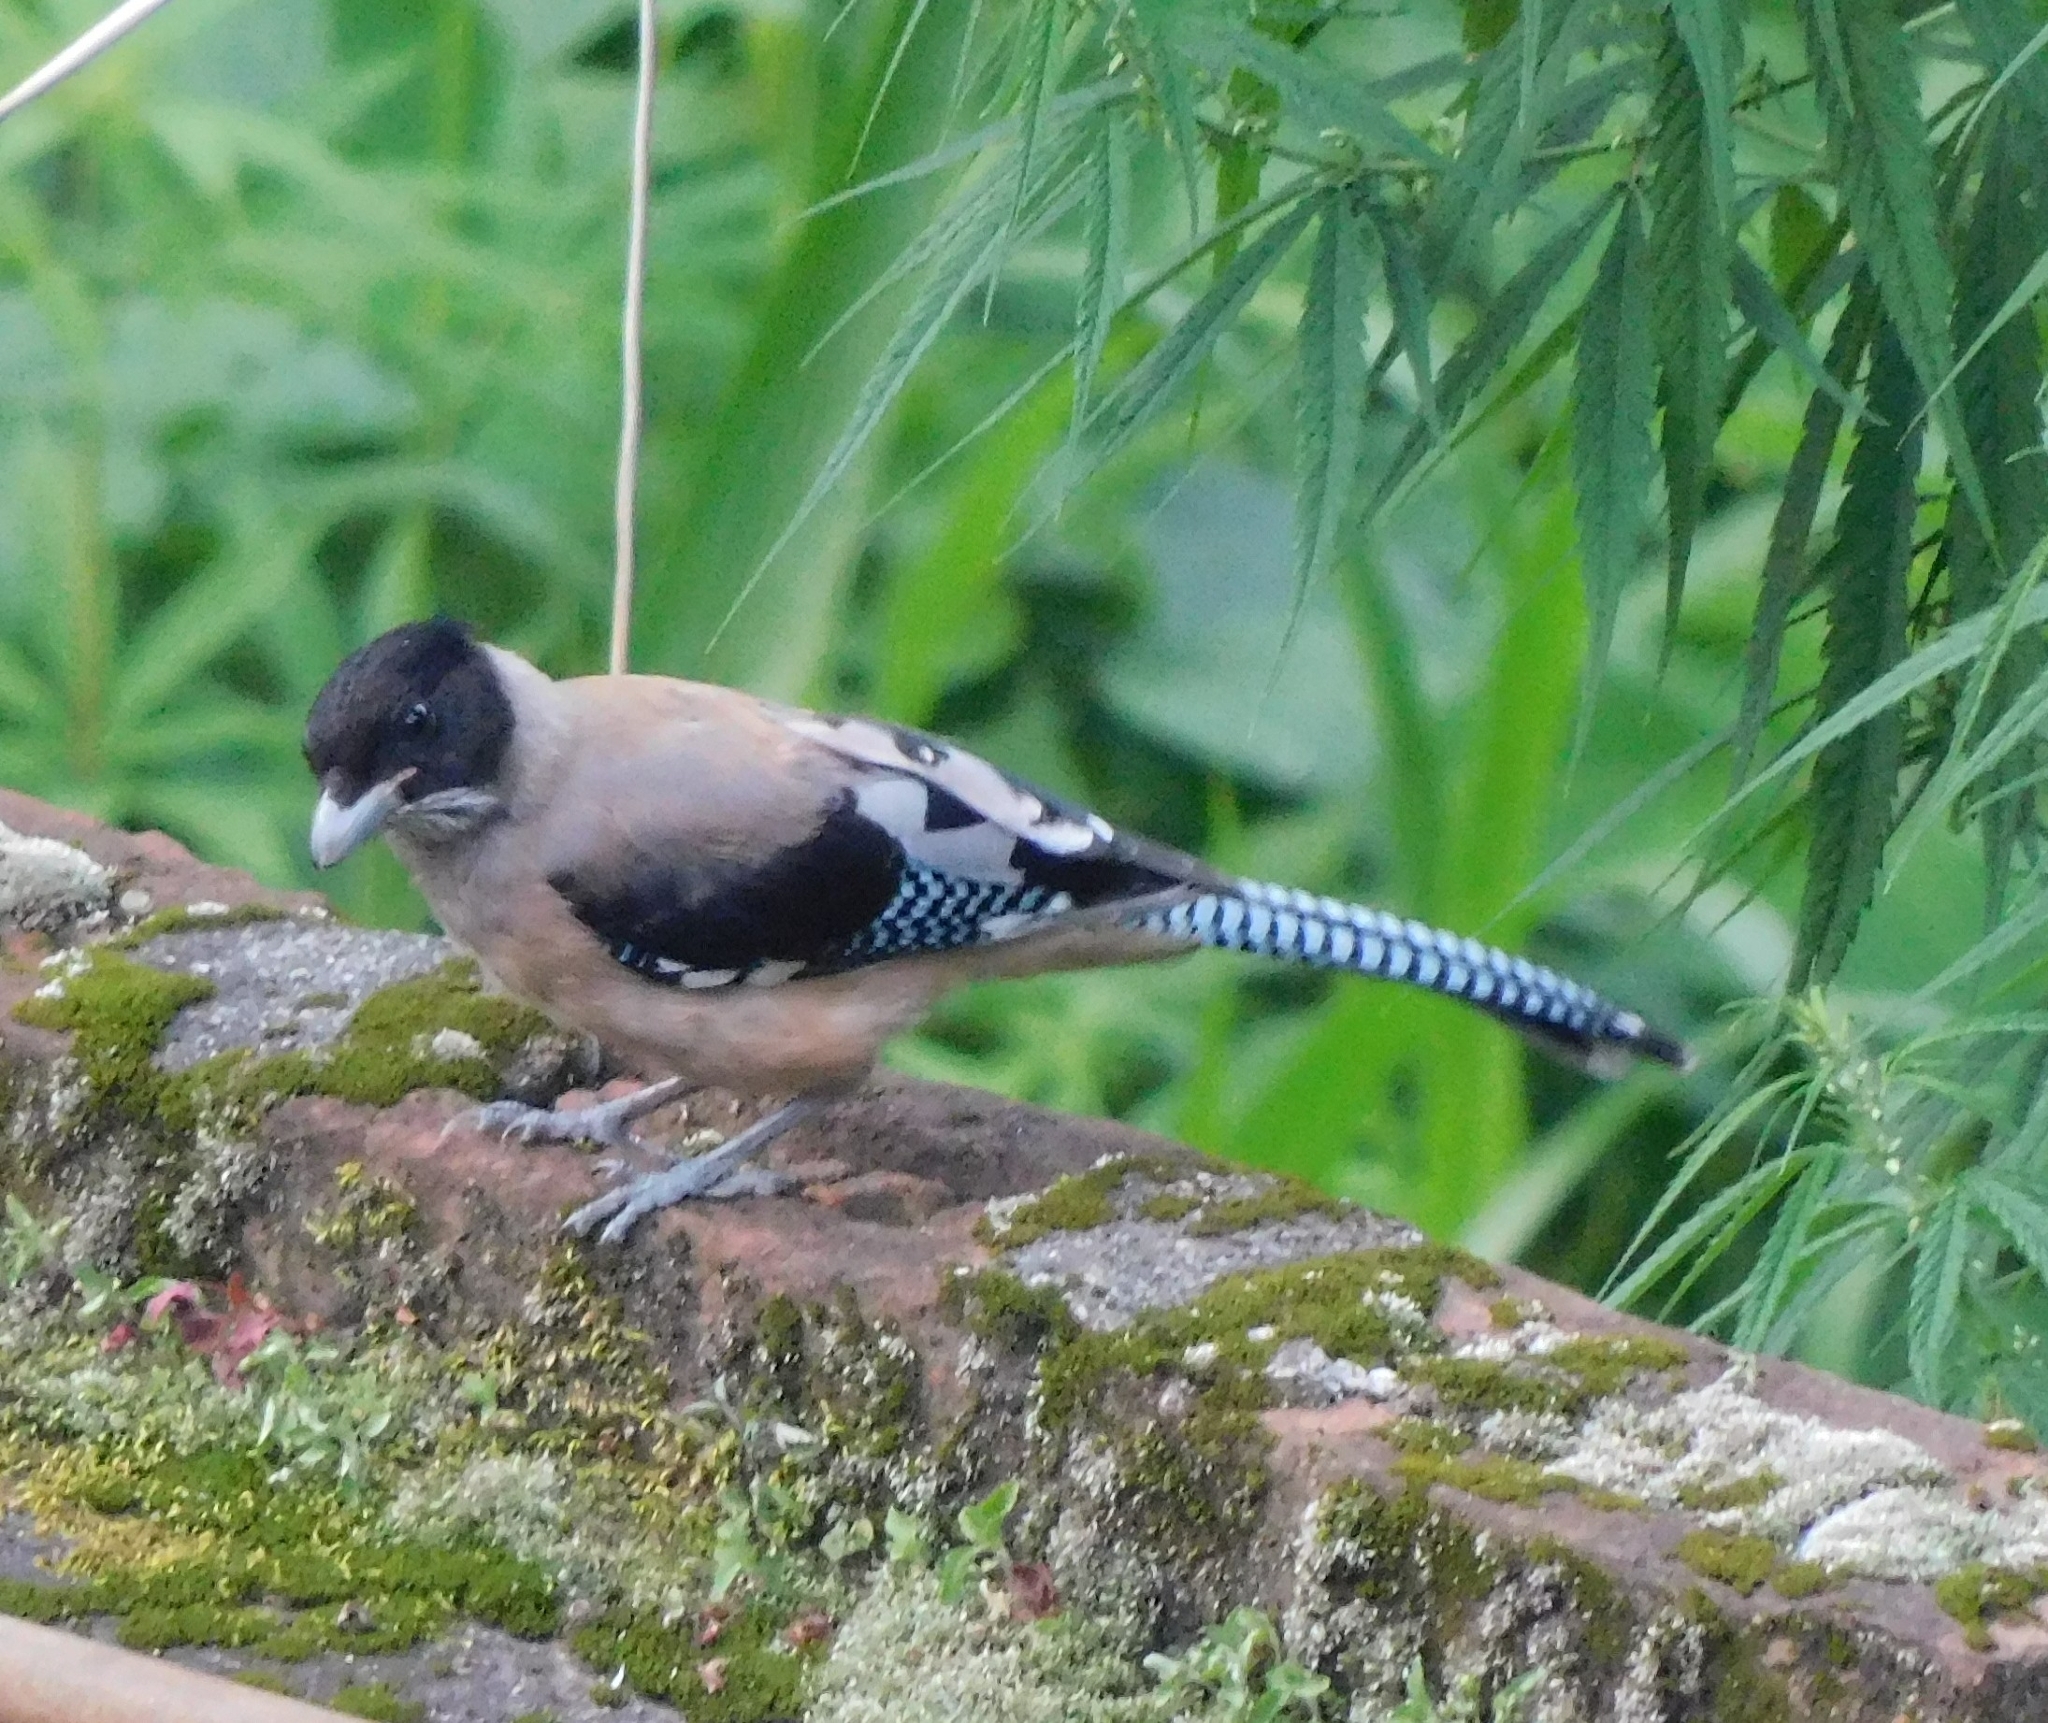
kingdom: Animalia
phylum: Chordata
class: Aves
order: Passeriformes
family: Corvidae
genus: Garrulus
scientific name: Garrulus lanceolatus
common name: Black-headed jay
